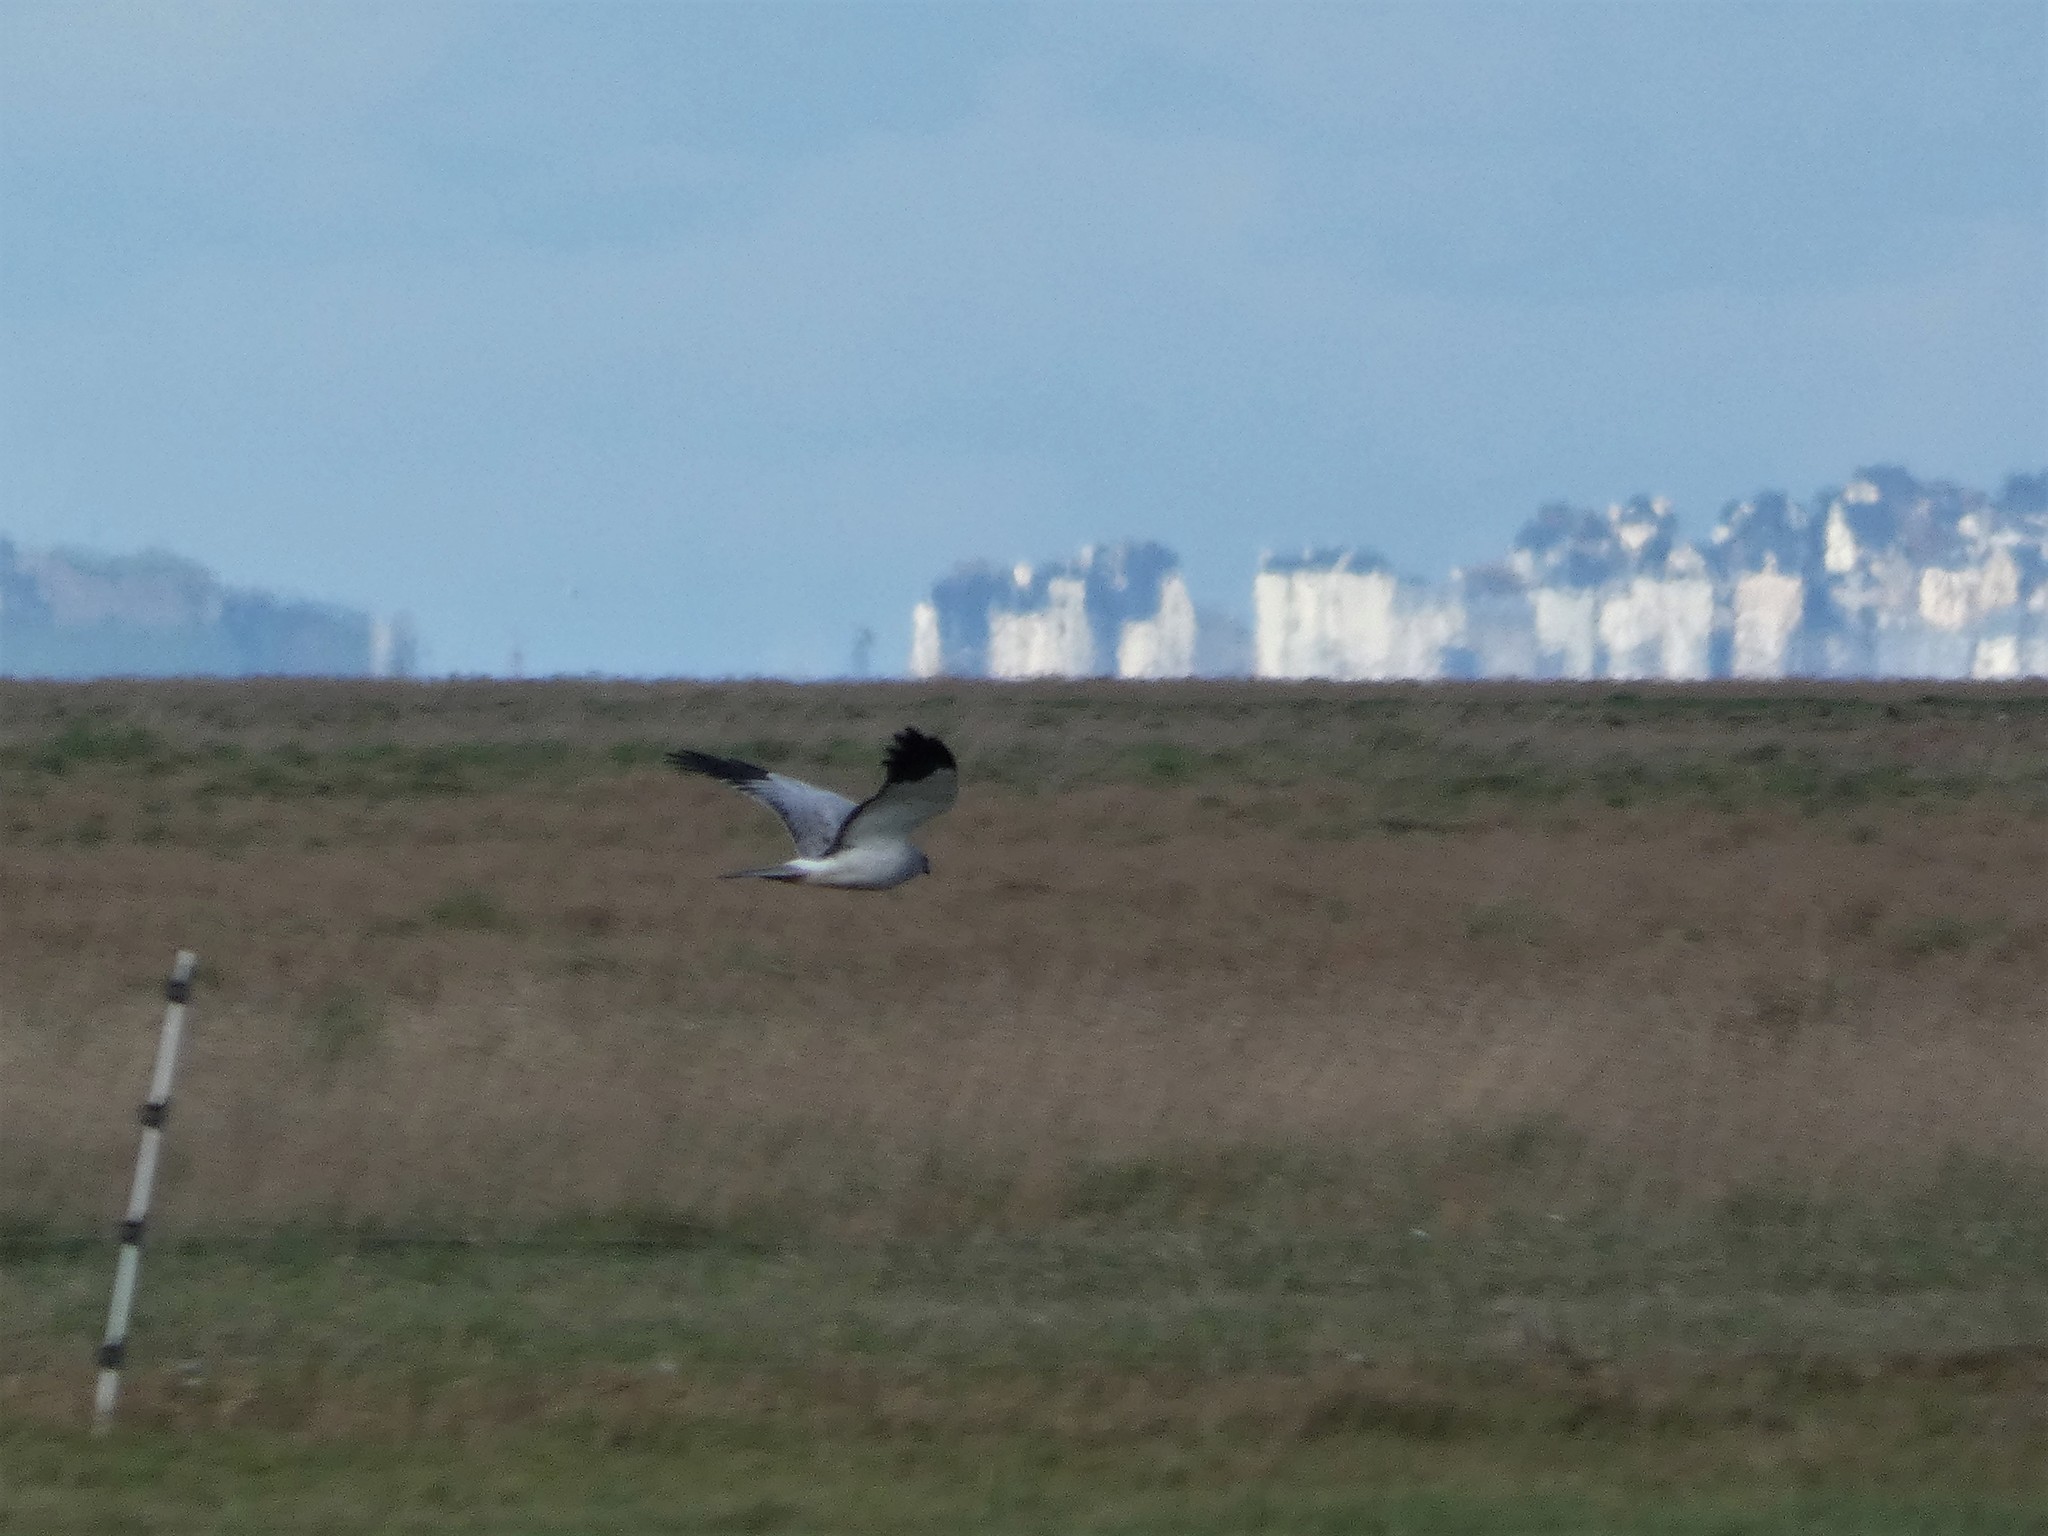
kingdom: Animalia
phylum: Chordata
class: Aves
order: Accipitriformes
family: Accipitridae
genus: Circus
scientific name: Circus cyaneus
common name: Hen harrier
